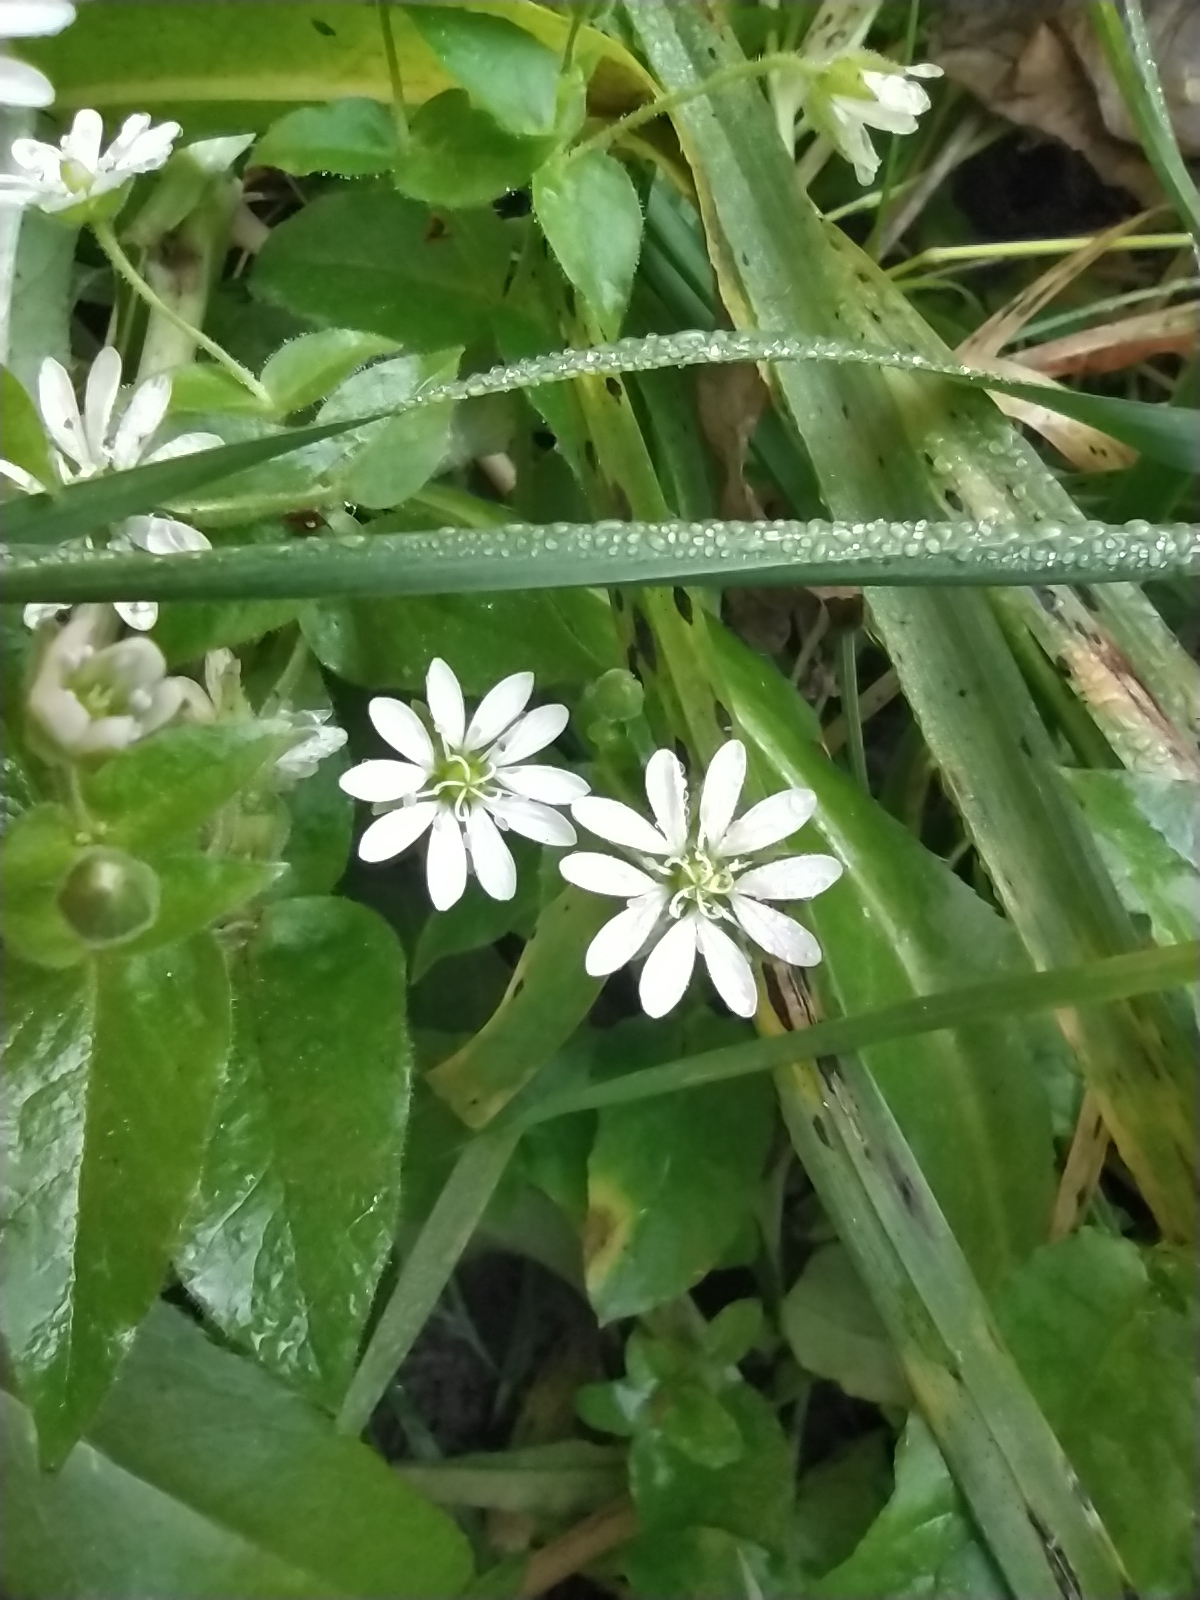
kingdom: Plantae
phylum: Tracheophyta
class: Magnoliopsida
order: Caryophyllales
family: Caryophyllaceae
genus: Stellaria
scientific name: Stellaria aquatica
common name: Water chickweed
